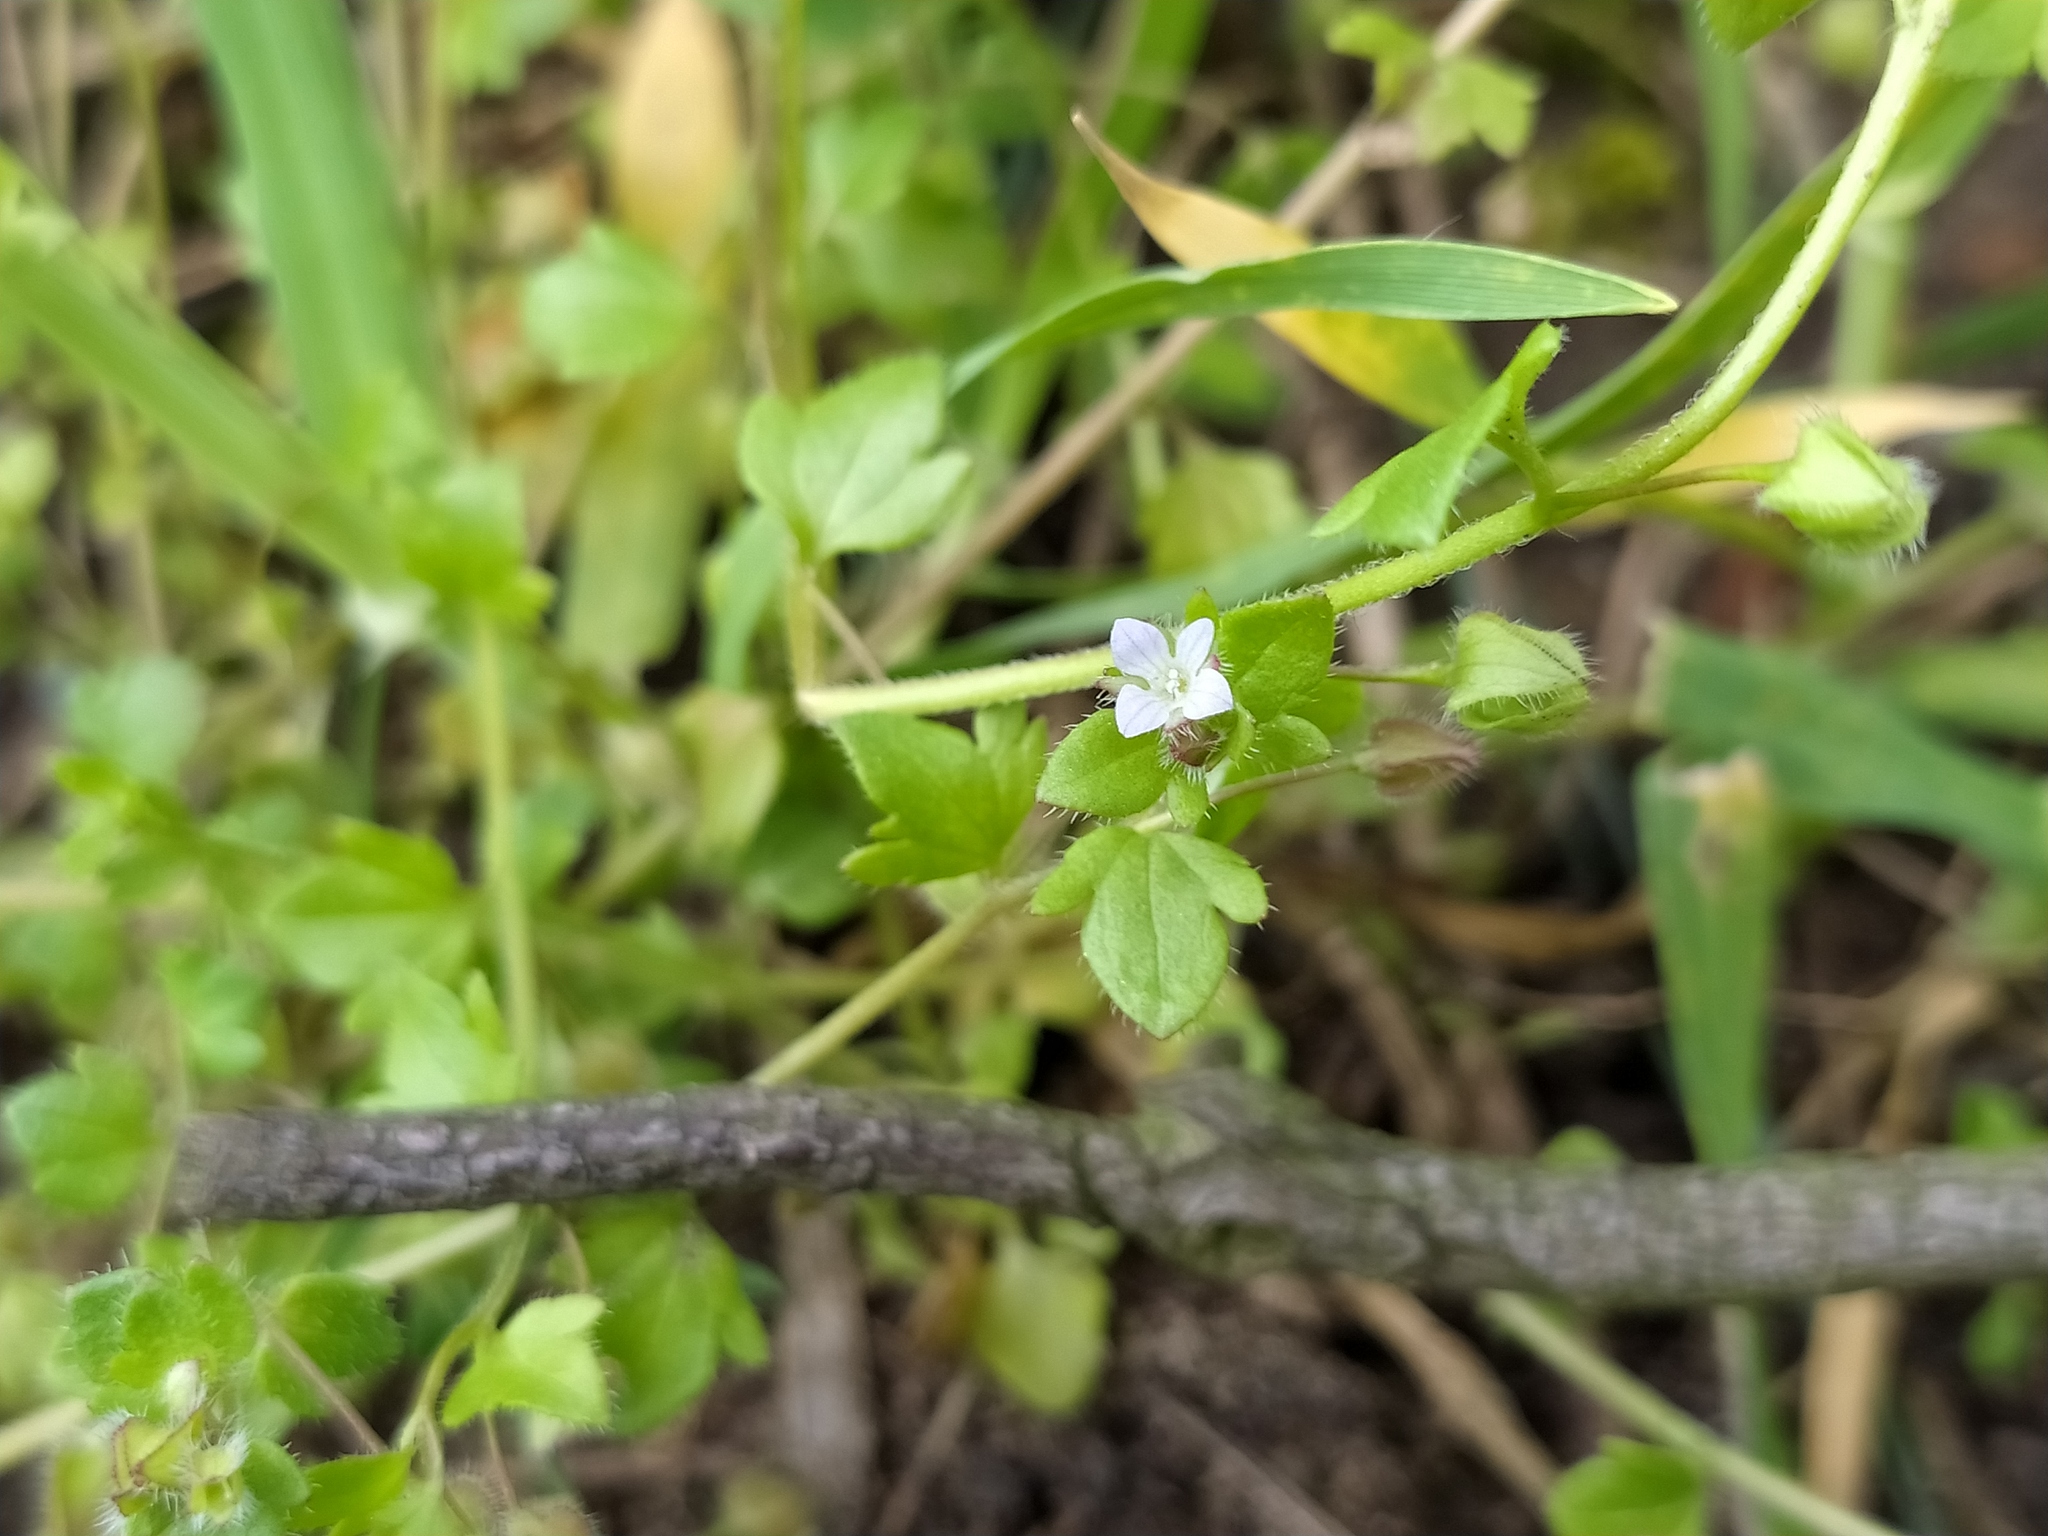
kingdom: Plantae
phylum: Tracheophyta
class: Magnoliopsida
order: Lamiales
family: Plantaginaceae
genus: Veronica
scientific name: Veronica sublobata
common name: False ivy-leaved speedwell
